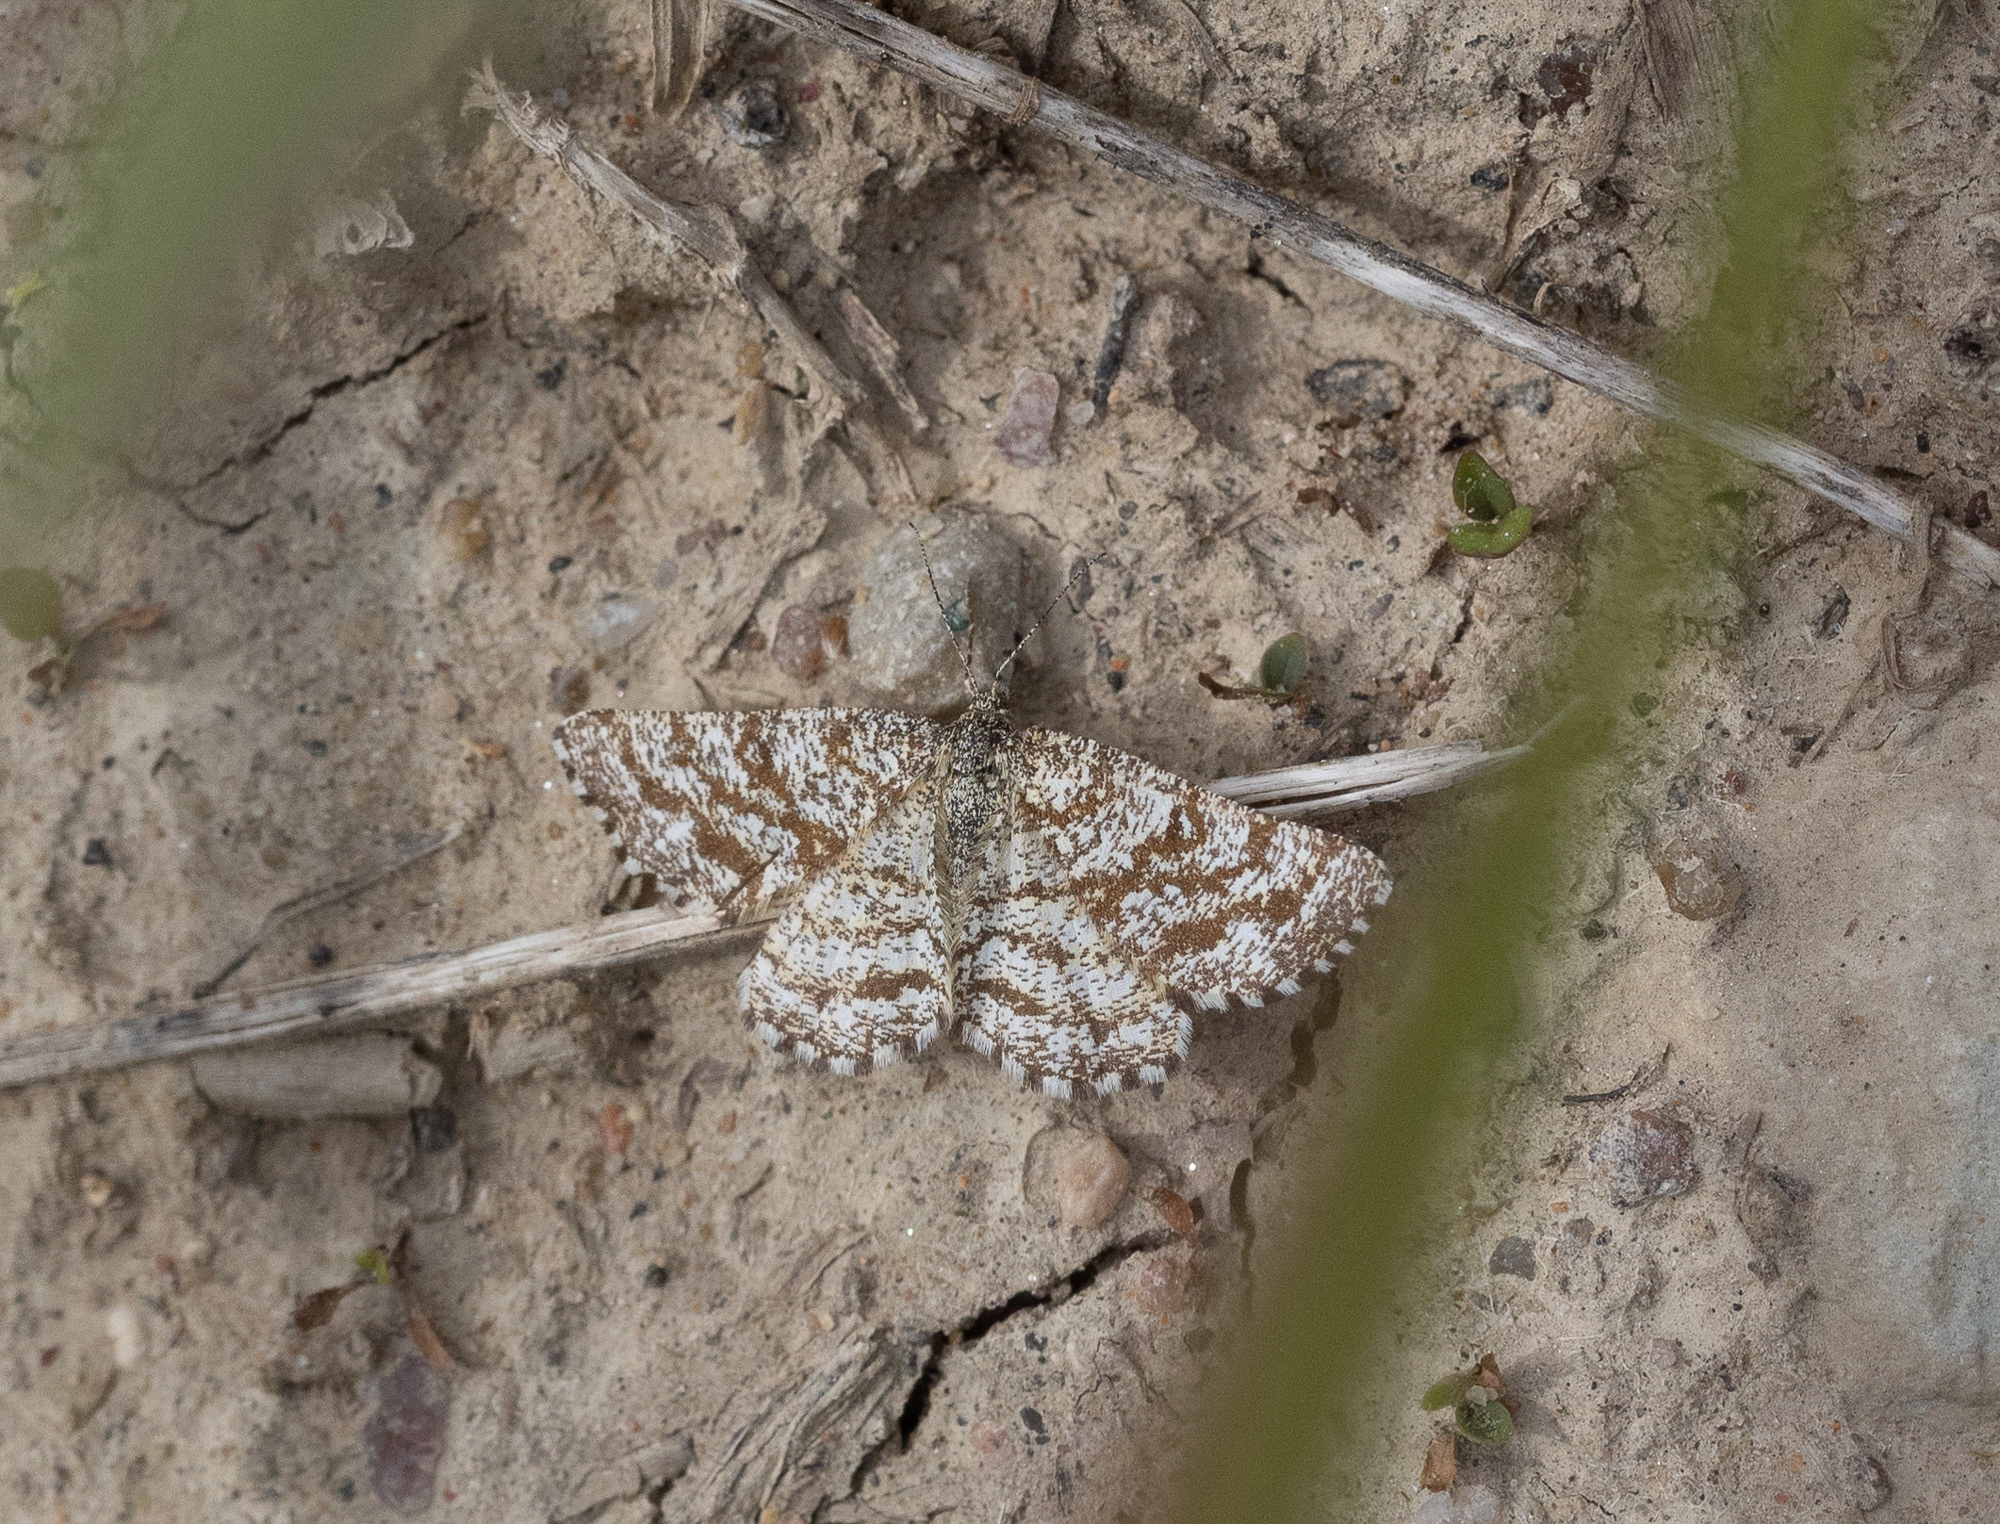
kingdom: Animalia
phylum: Arthropoda
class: Insecta
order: Lepidoptera
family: Geometridae
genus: Ematurga
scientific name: Ematurga atomaria
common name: Common heath
